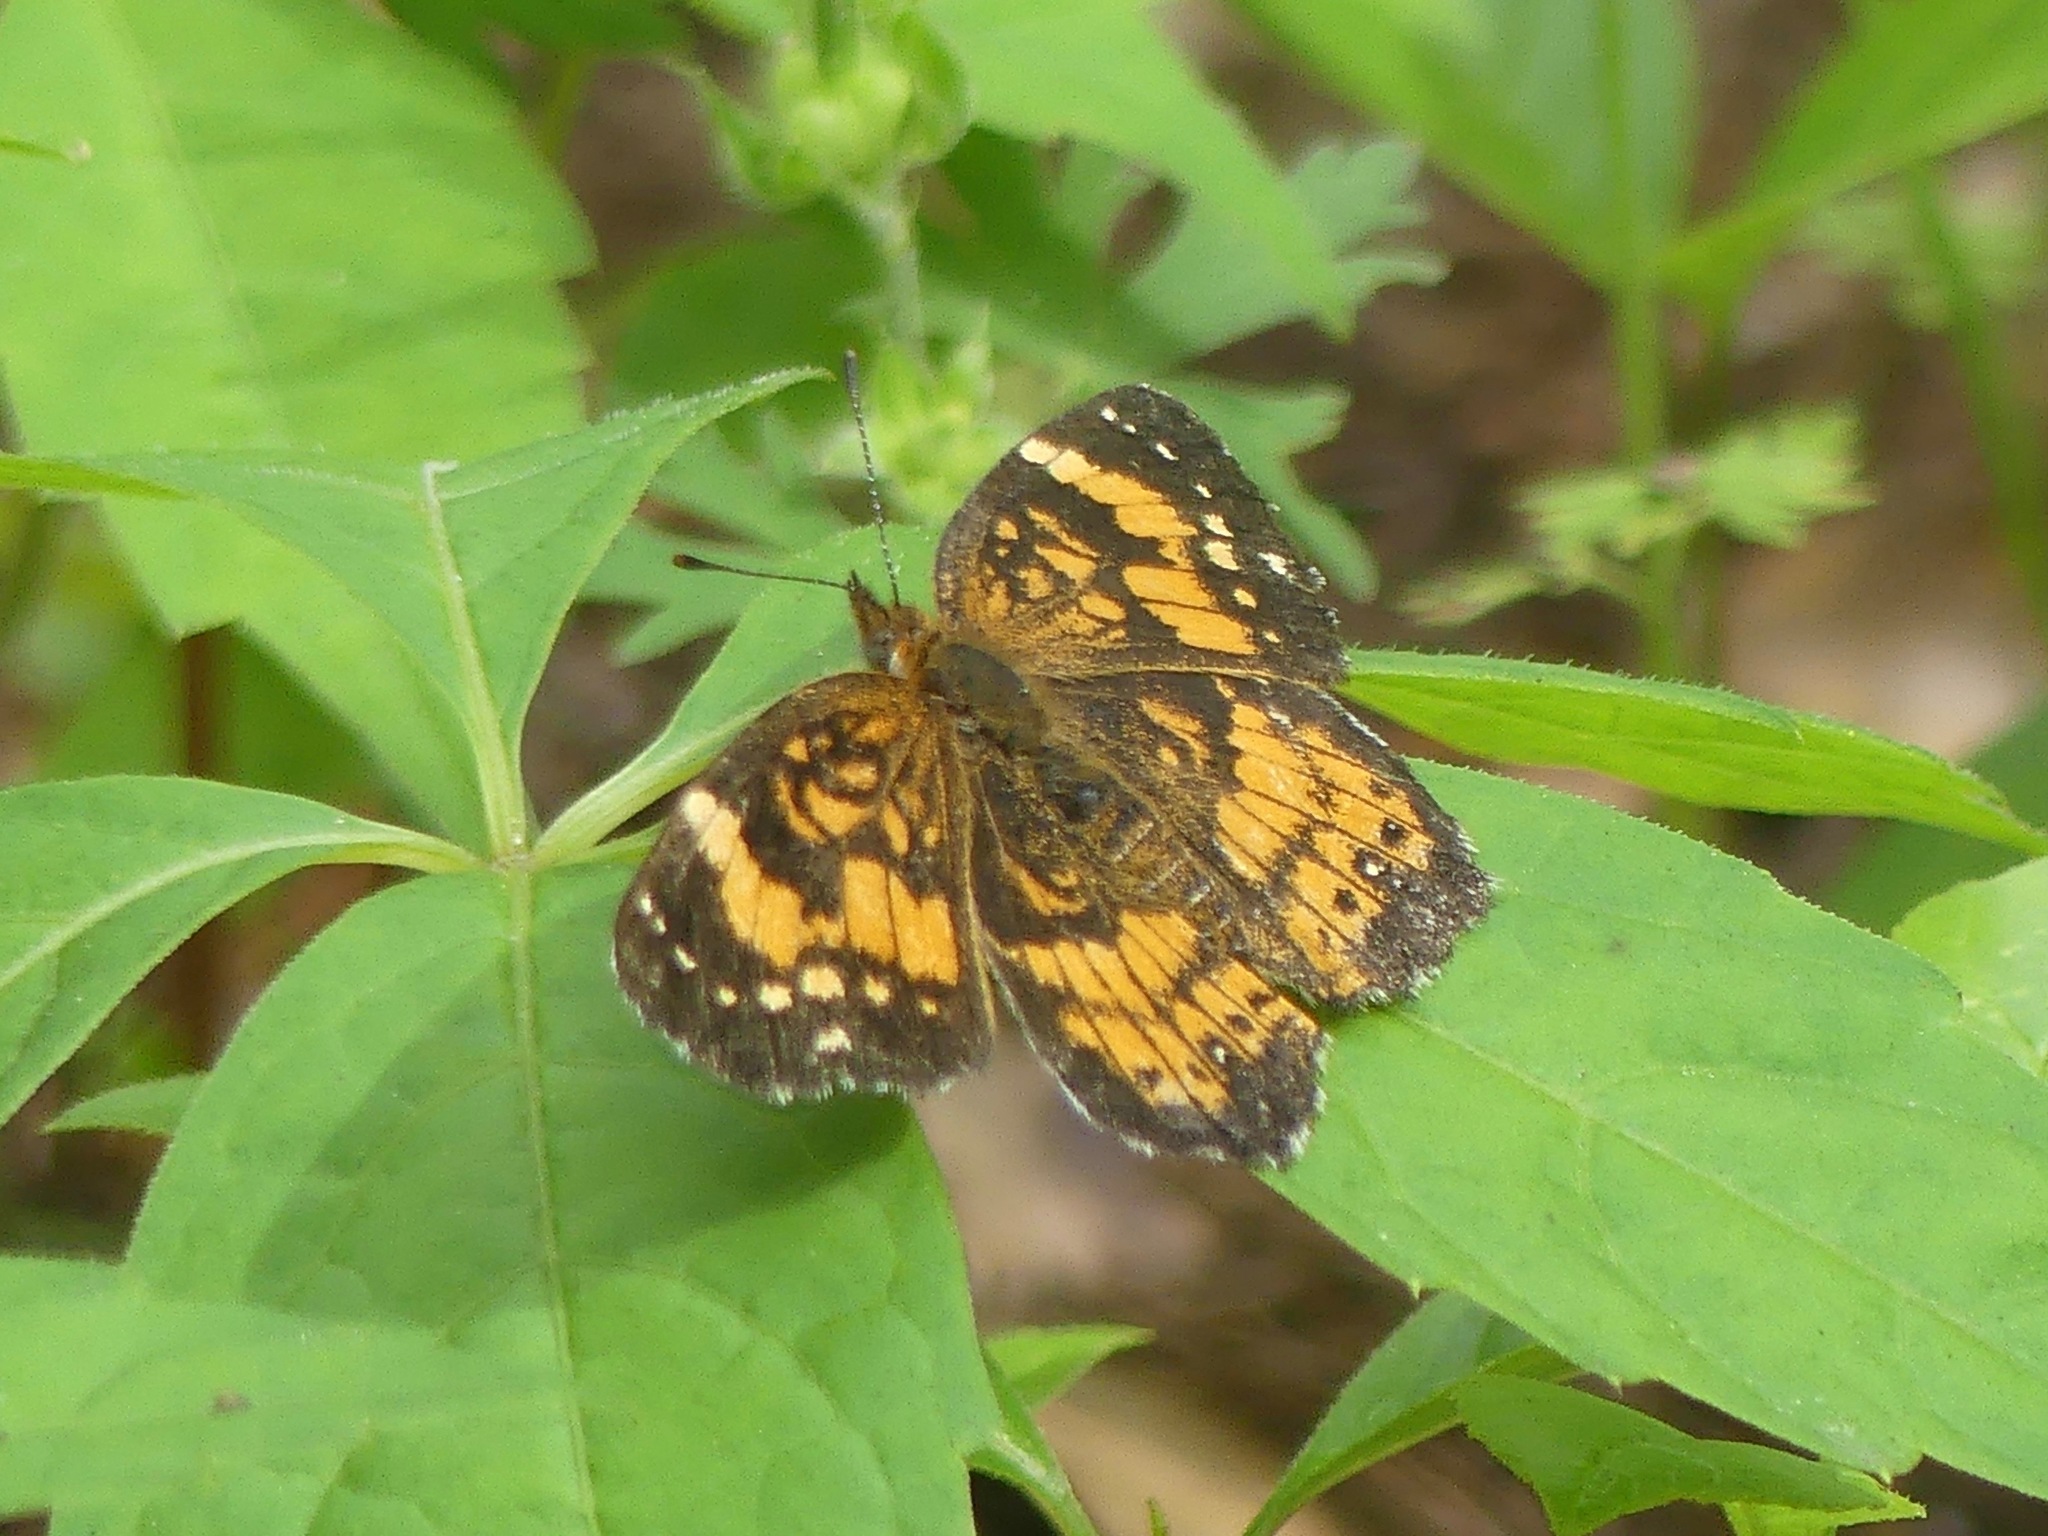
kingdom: Animalia
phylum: Arthropoda
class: Insecta
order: Lepidoptera
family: Nymphalidae
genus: Chlosyne
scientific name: Chlosyne nycteis
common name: Silvery checkerspot
